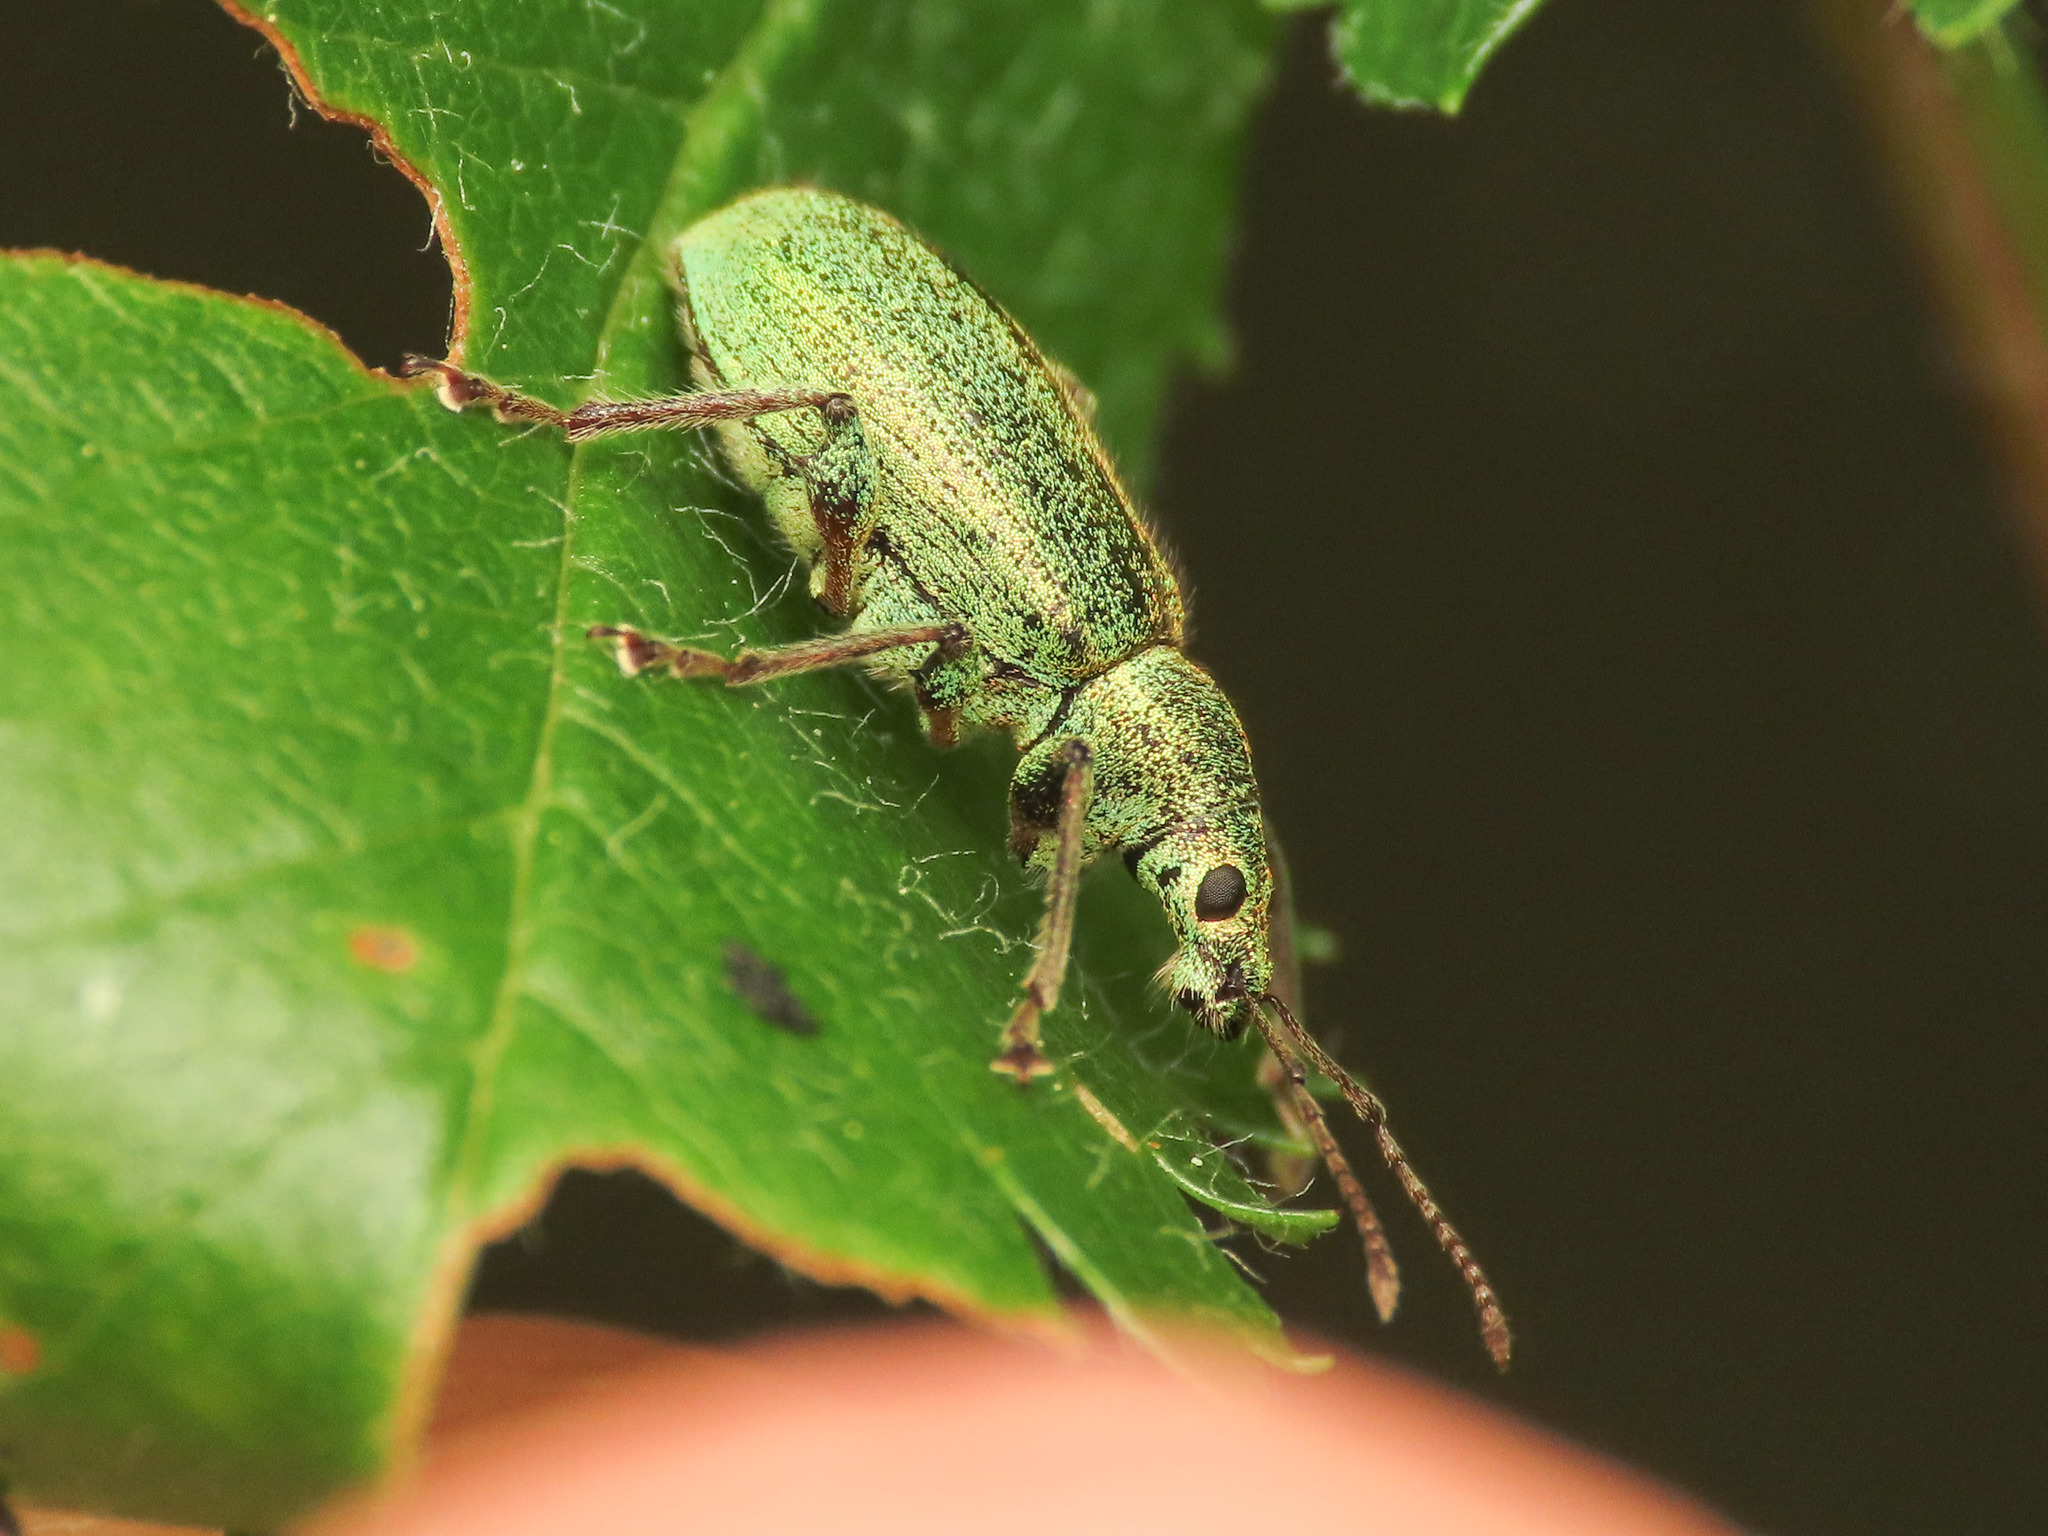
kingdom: Animalia
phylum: Arthropoda
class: Insecta
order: Coleoptera
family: Curculionidae
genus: Phyllobius
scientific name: Phyllobius arborator
